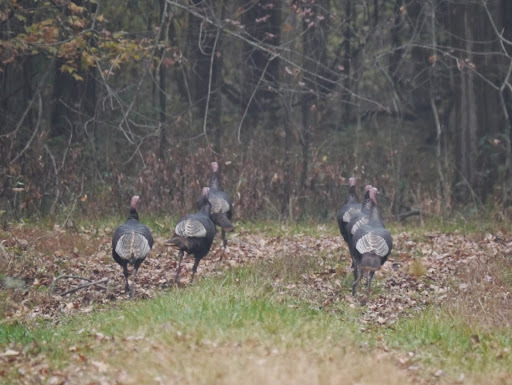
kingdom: Animalia
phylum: Chordata
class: Aves
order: Galliformes
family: Phasianidae
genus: Meleagris
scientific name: Meleagris gallopavo
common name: Wild turkey
